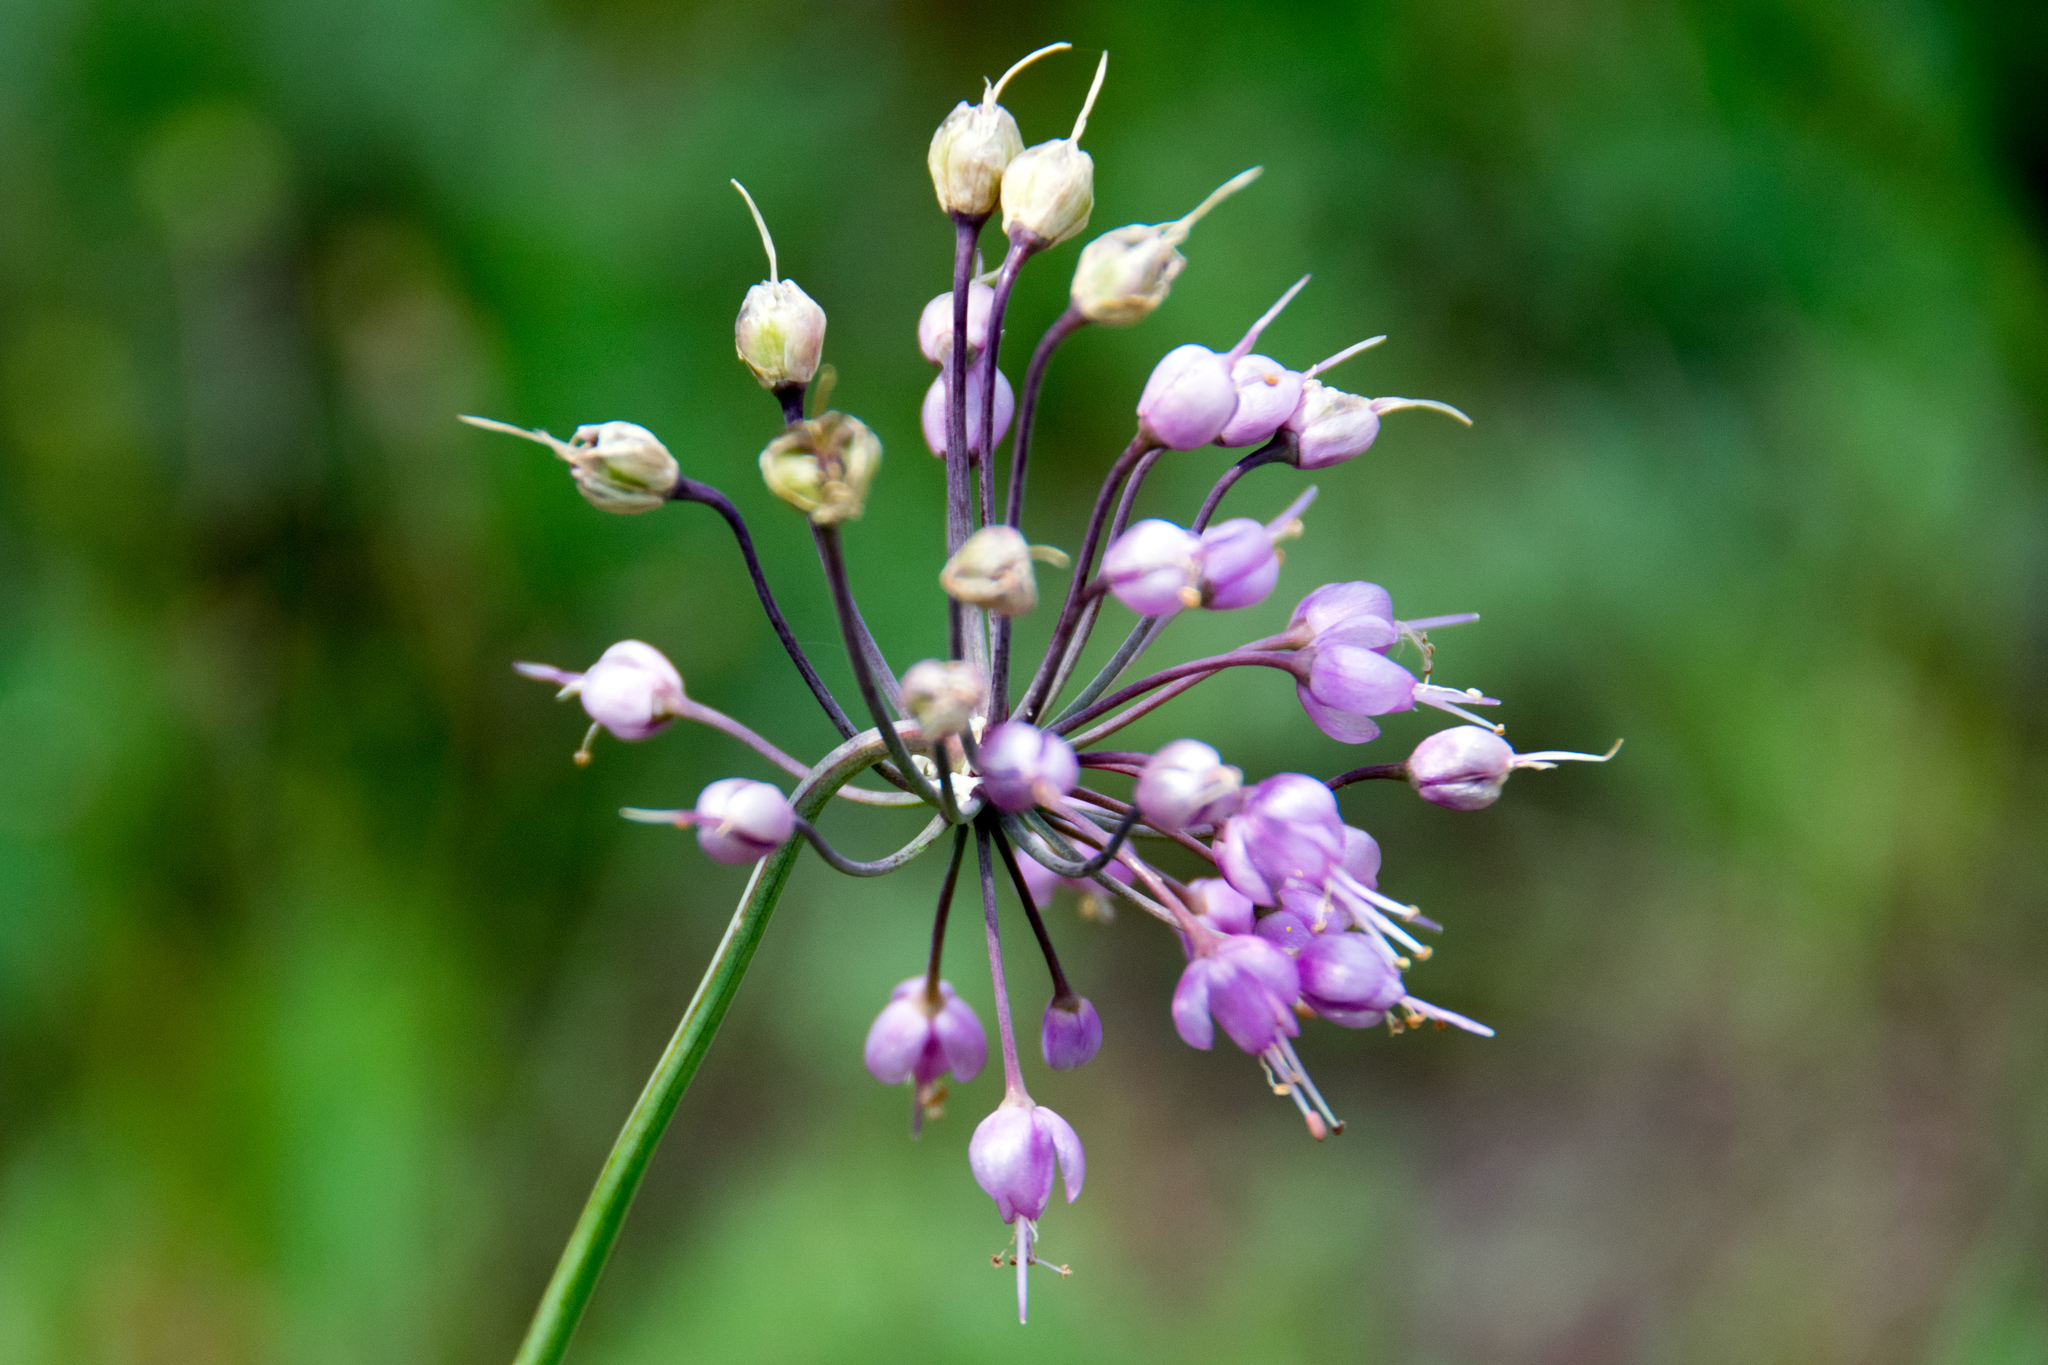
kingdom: Plantae
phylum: Tracheophyta
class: Liliopsida
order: Asparagales
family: Amaryllidaceae
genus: Allium
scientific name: Allium cernuum
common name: Nodding onion
